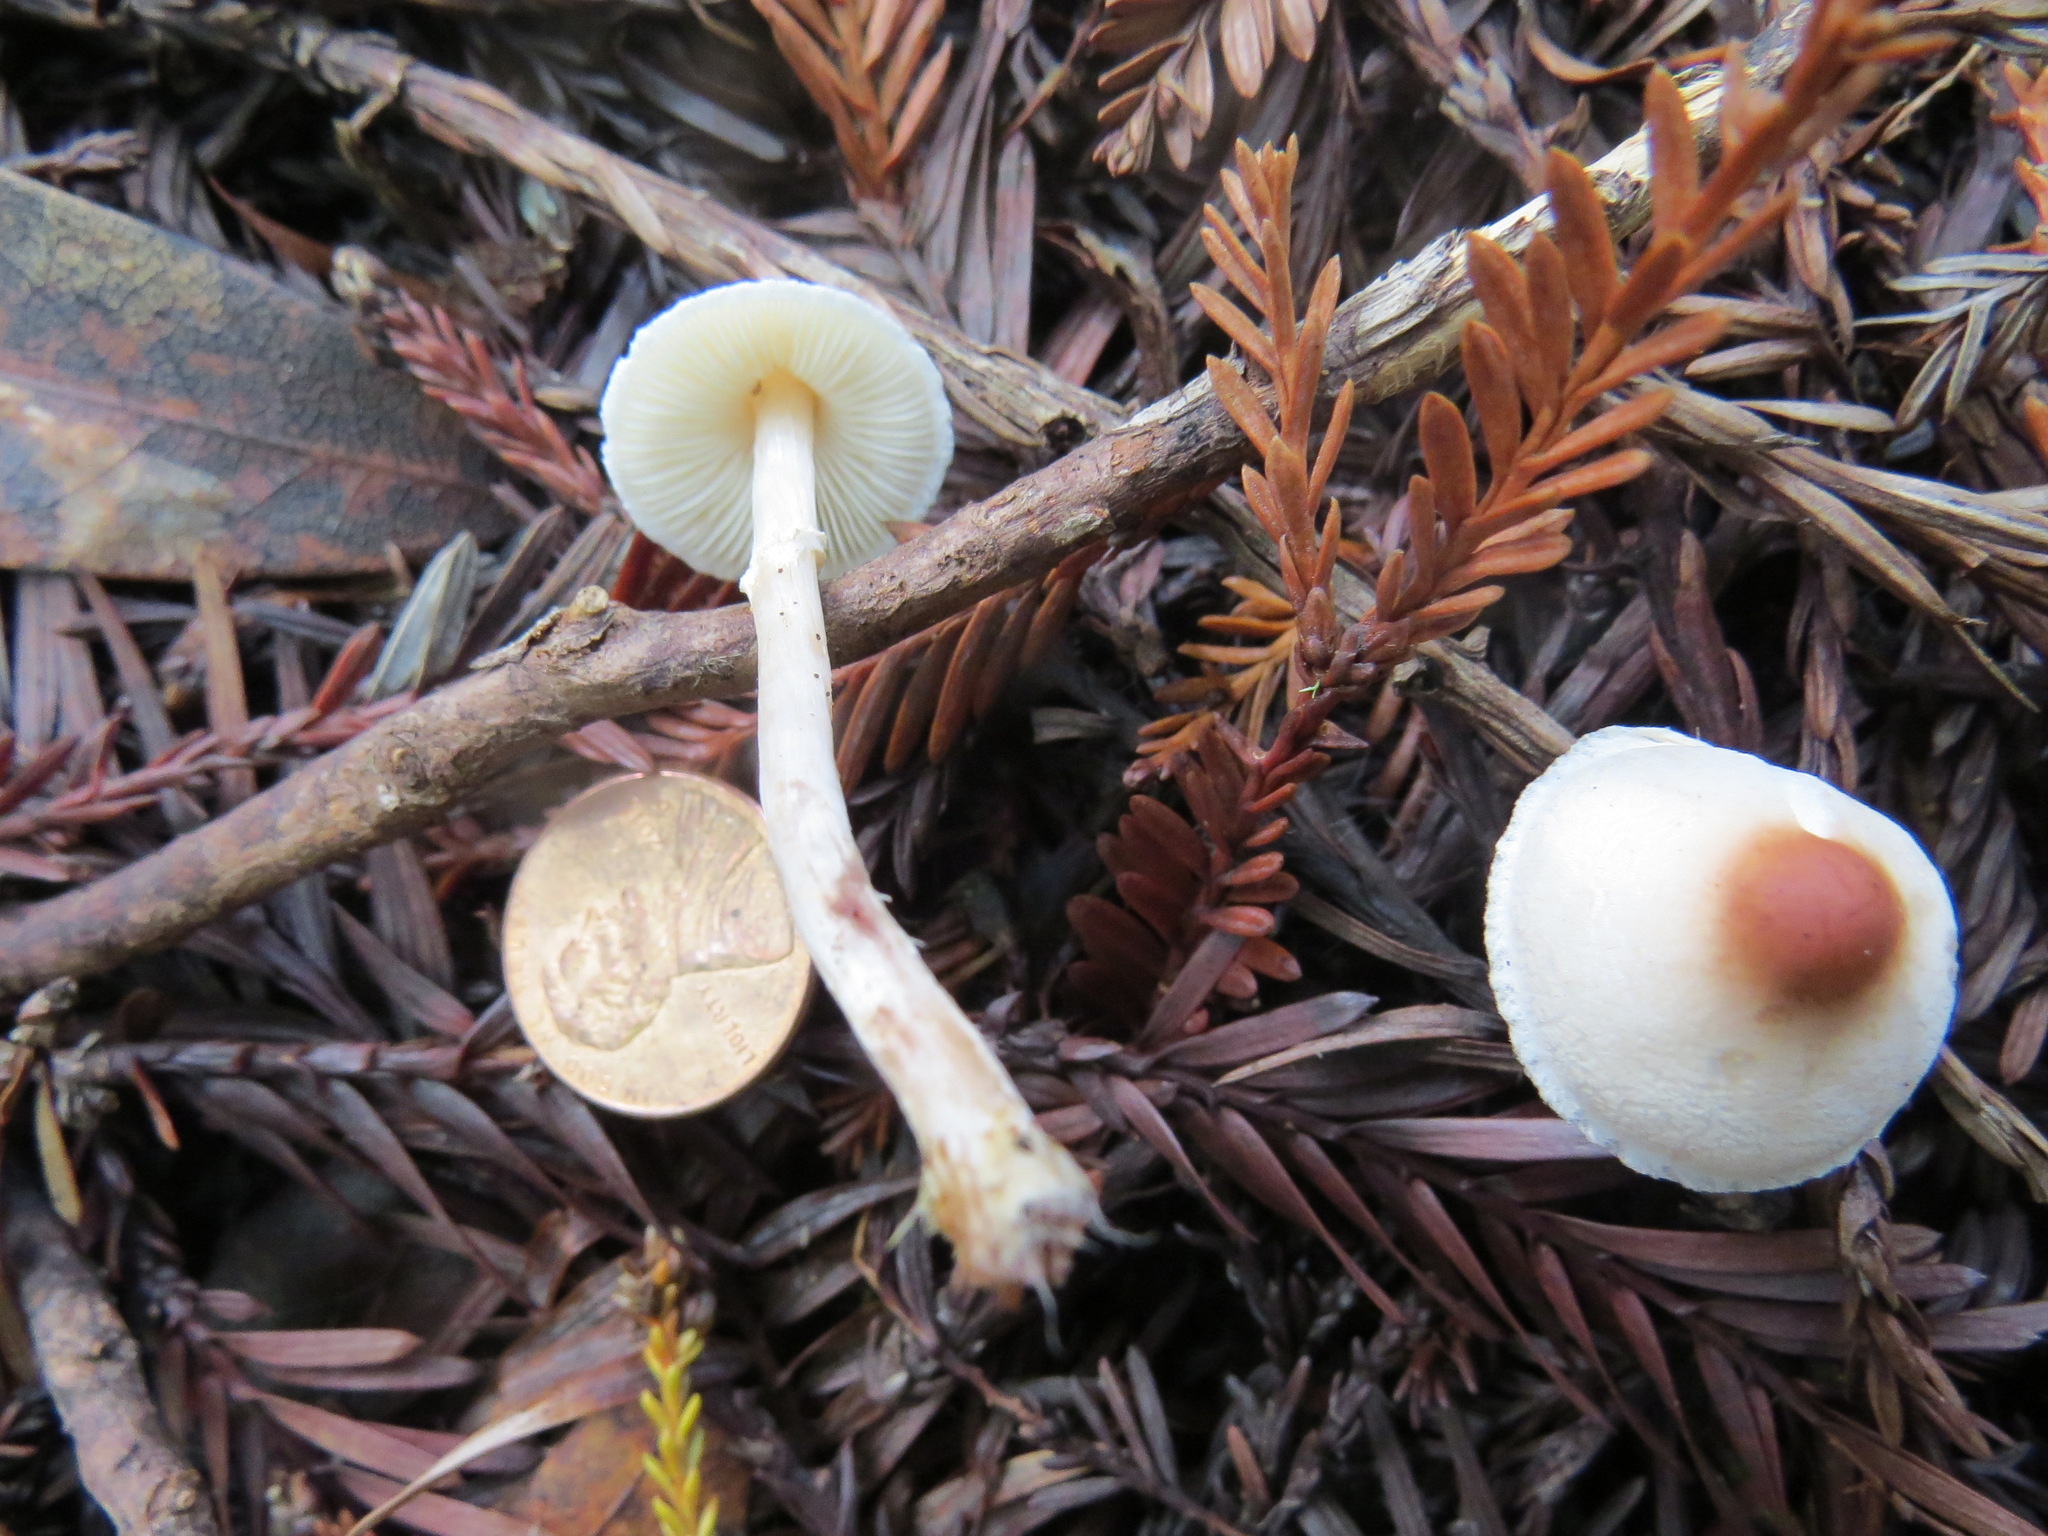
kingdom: Fungi
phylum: Basidiomycota
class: Agaricomycetes
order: Agaricales
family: Agaricaceae
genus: Lepiota
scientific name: Lepiota castaneidisca
